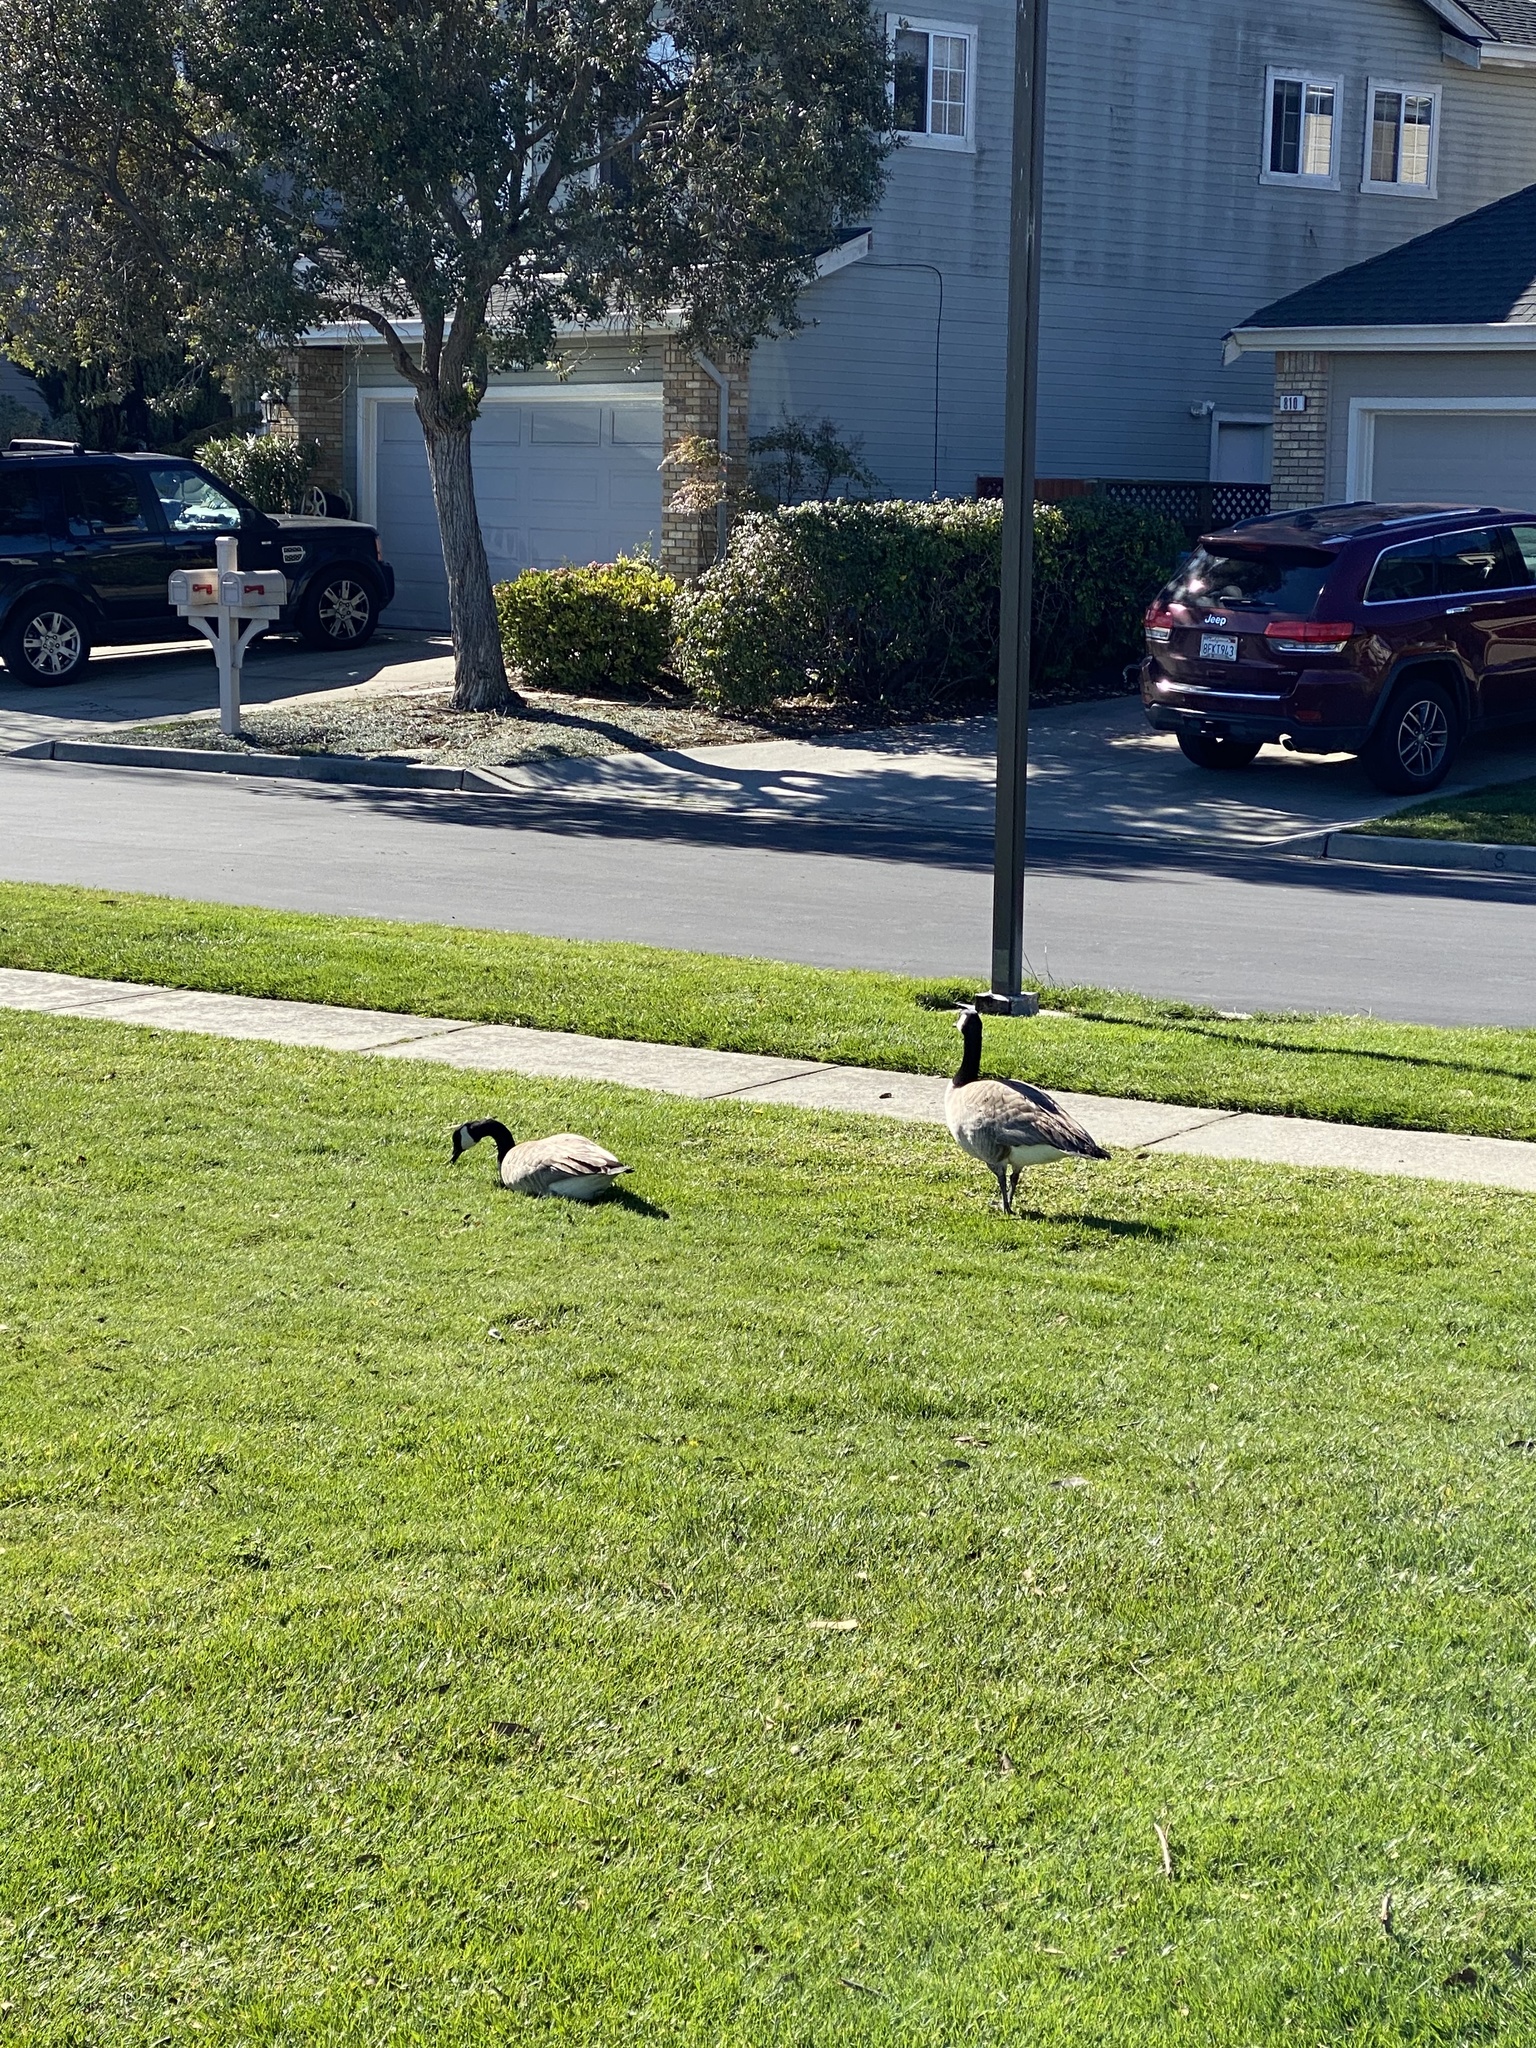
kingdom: Animalia
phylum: Chordata
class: Aves
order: Anseriformes
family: Anatidae
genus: Branta
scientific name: Branta canadensis
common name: Canada goose
